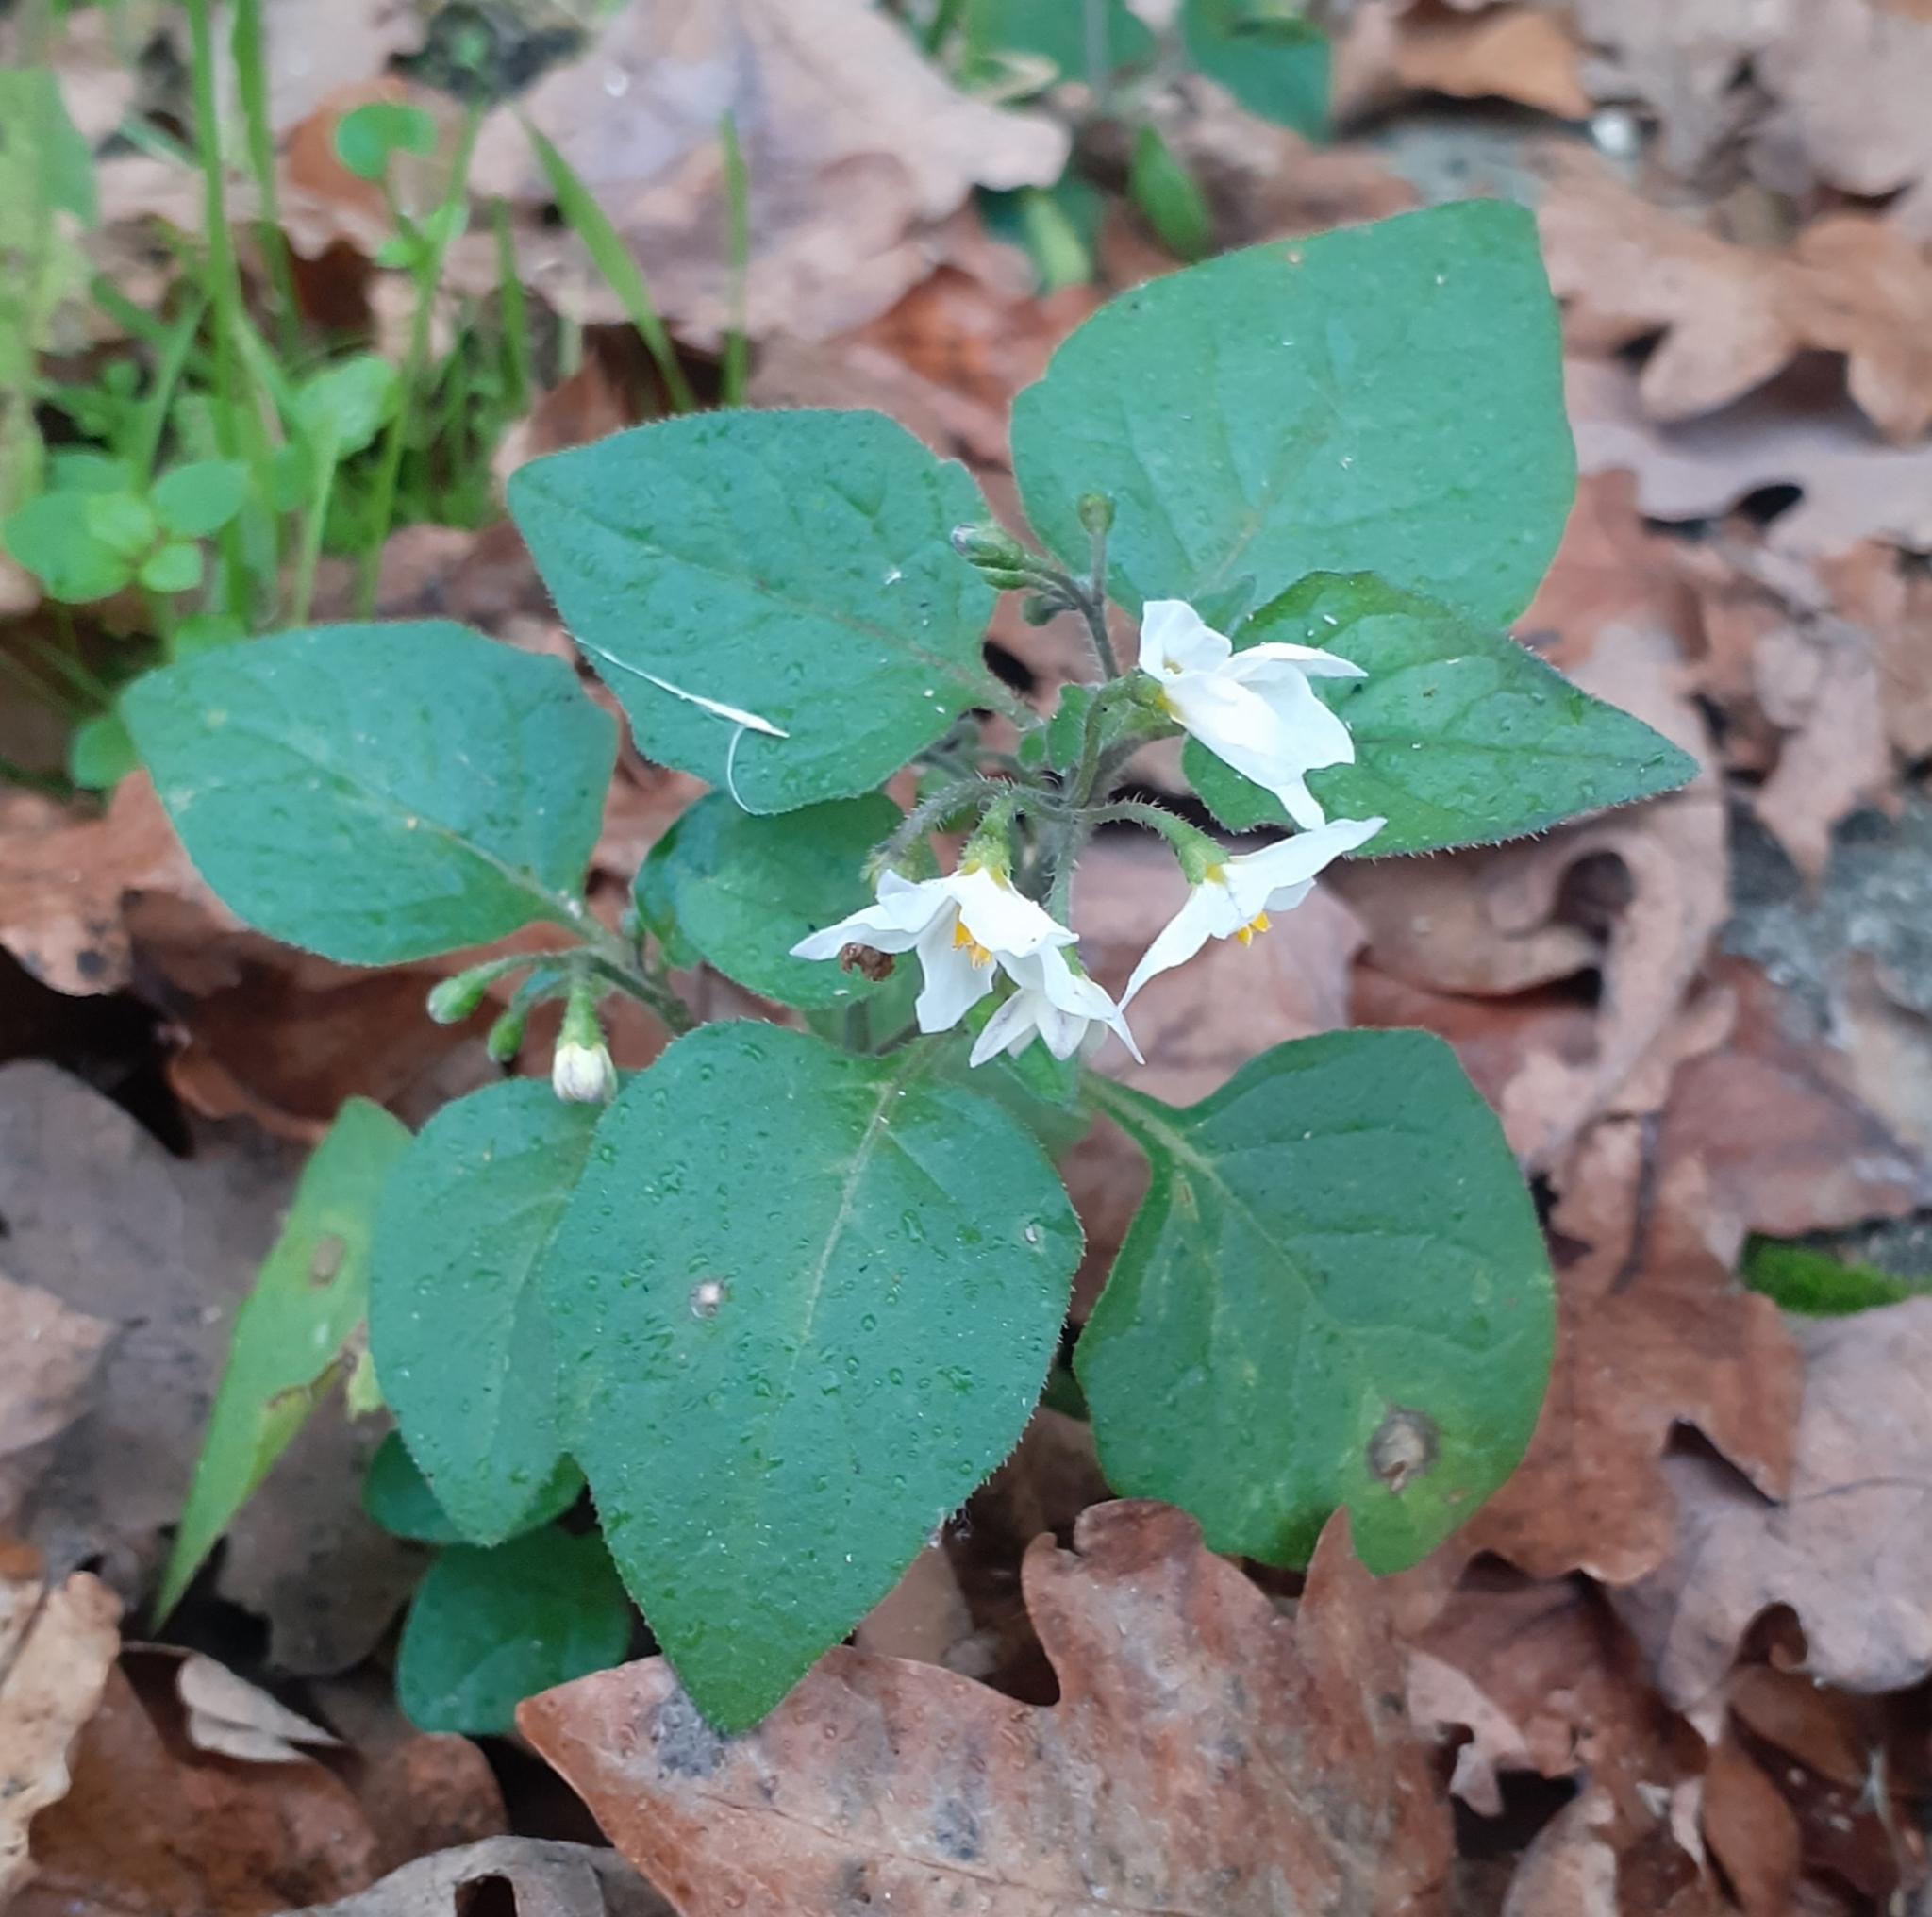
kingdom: Plantae
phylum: Tracheophyta
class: Magnoliopsida
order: Solanales
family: Solanaceae
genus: Solanum
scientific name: Solanum nigrum
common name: Black nightshade
